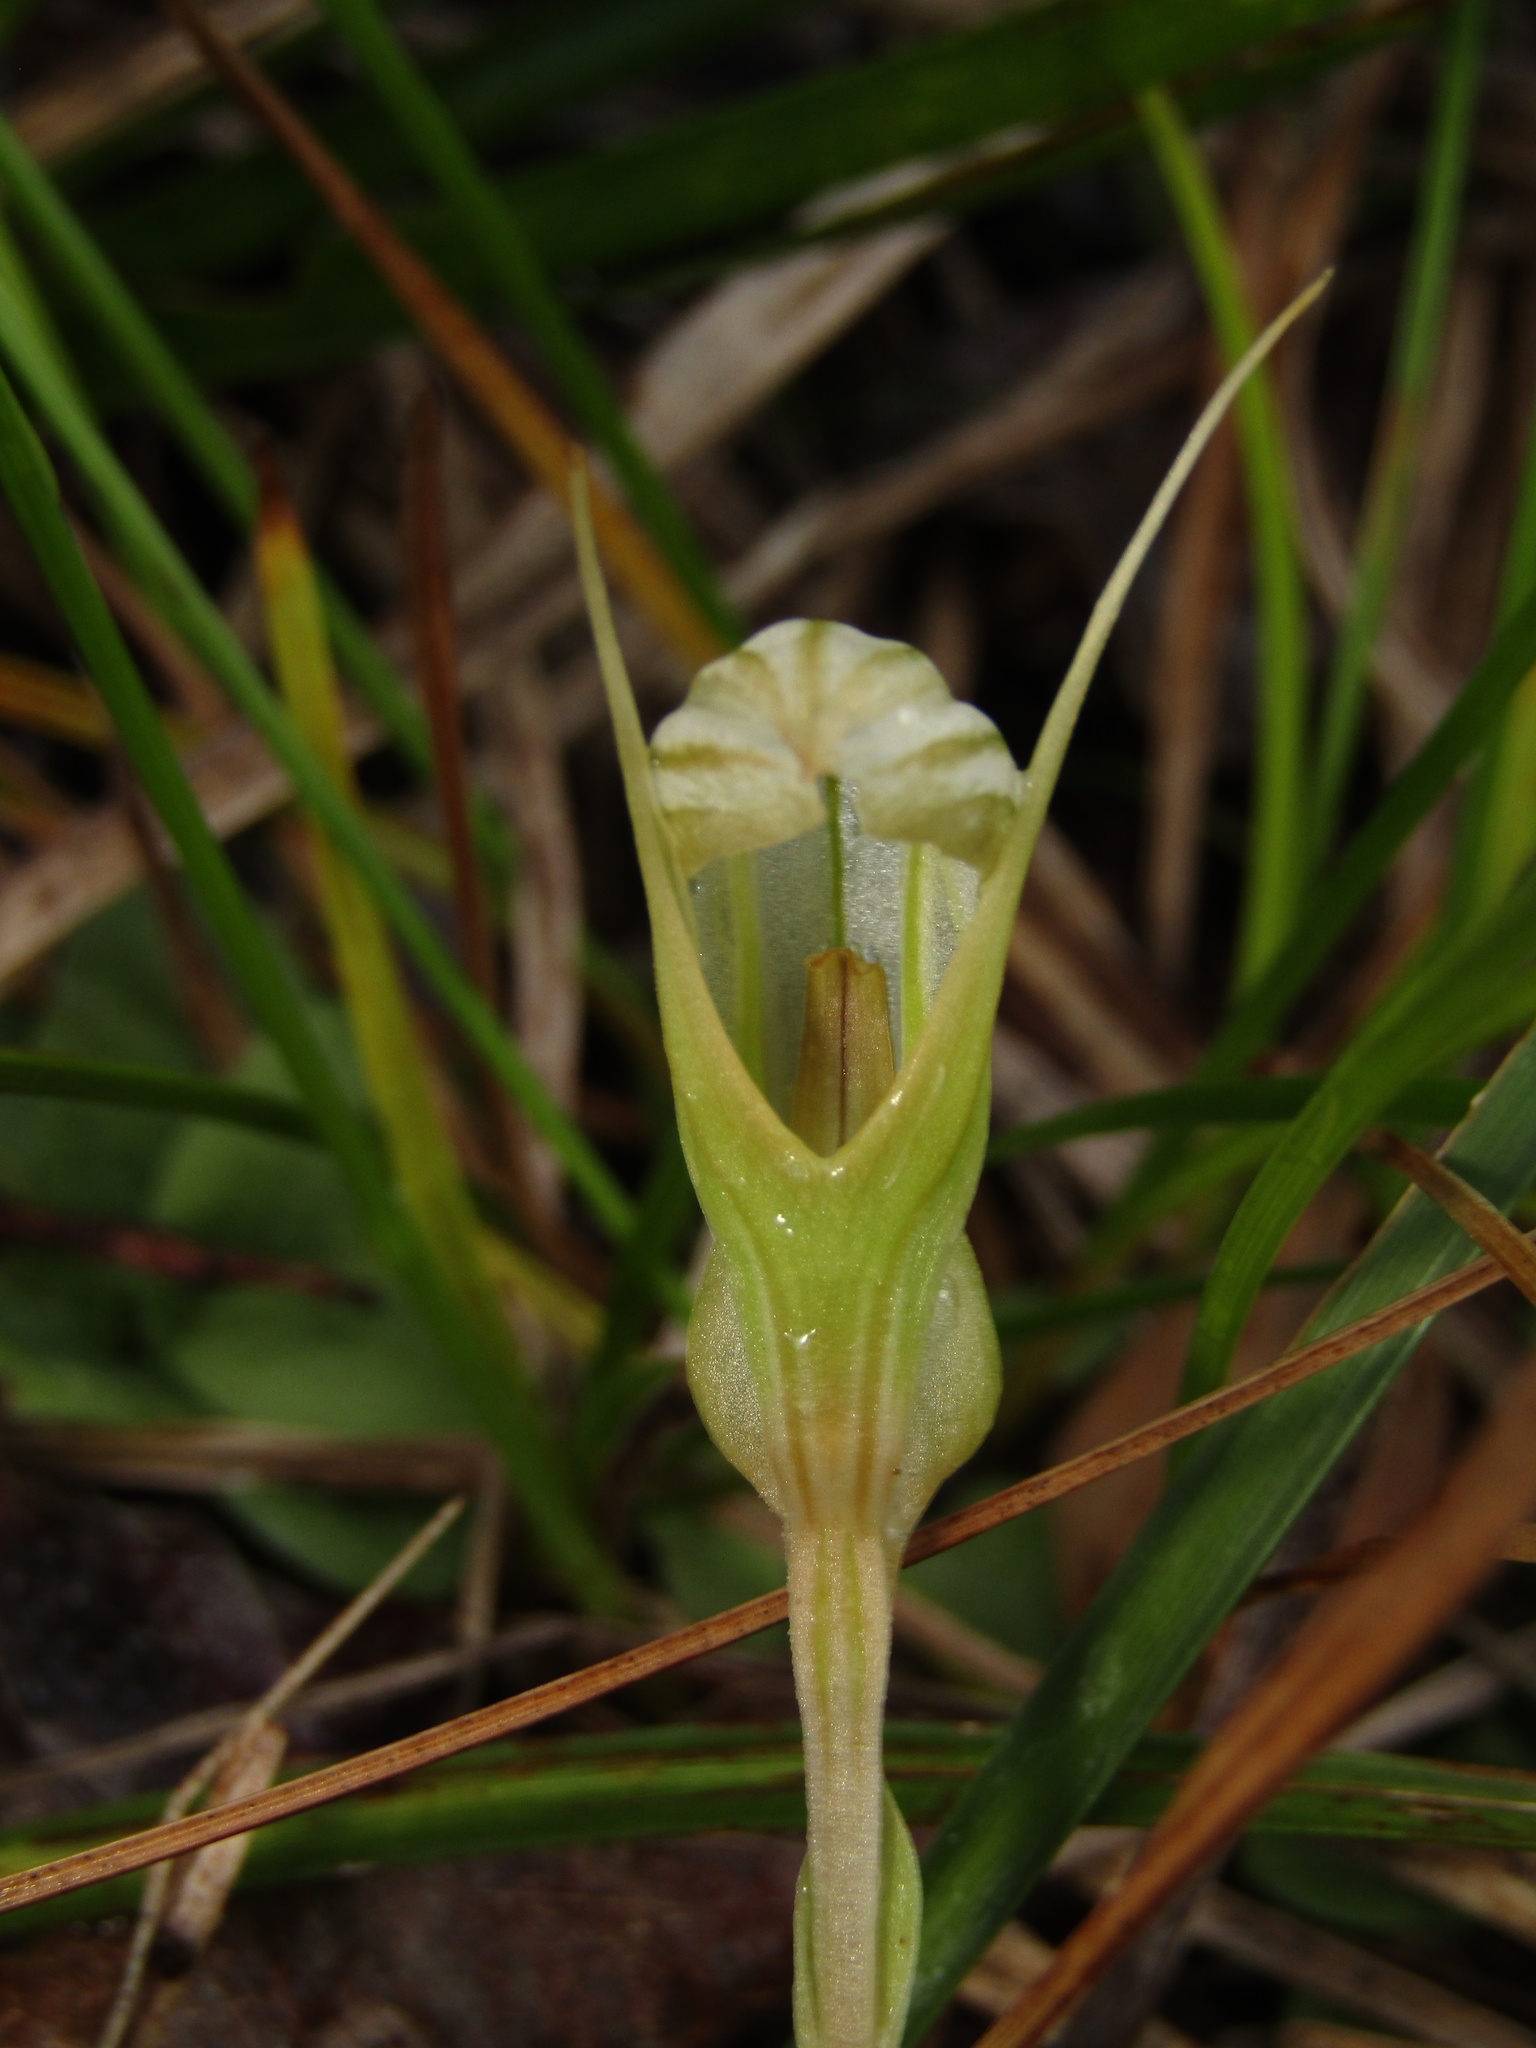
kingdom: Plantae
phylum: Tracheophyta
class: Liliopsida
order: Asparagales
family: Orchidaceae
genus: Pterostylis
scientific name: Pterostylis ophioglossa
